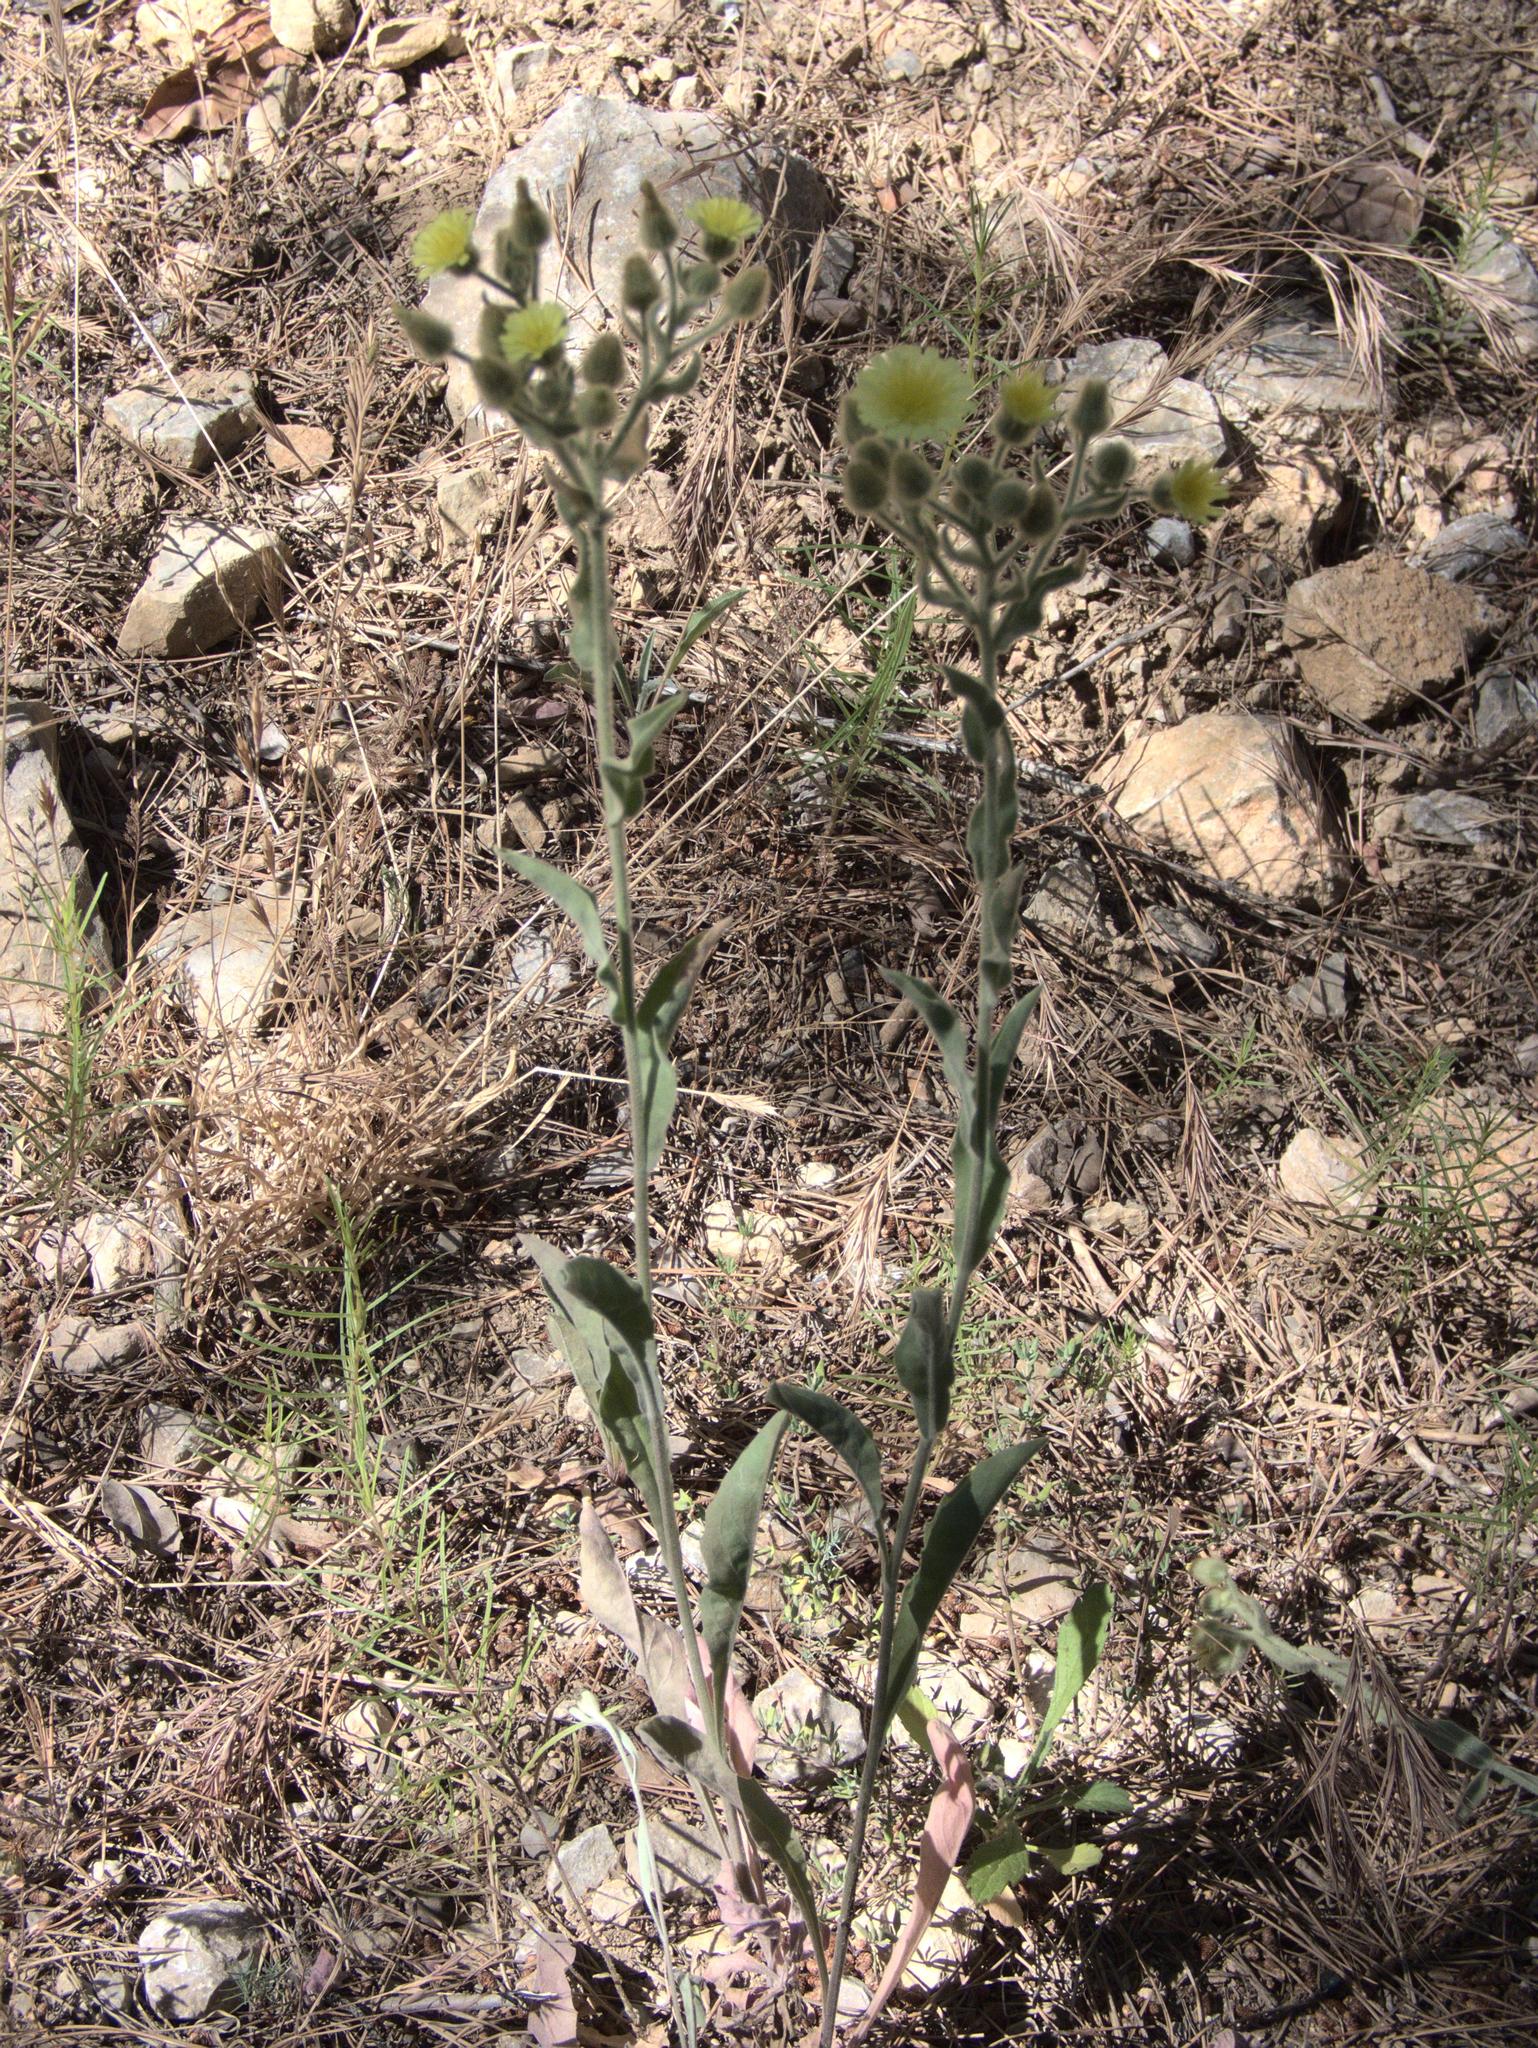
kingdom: Plantae
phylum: Tracheophyta
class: Magnoliopsida
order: Asterales
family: Asteraceae
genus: Andryala
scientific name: Andryala integrifolia
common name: Common andryala
